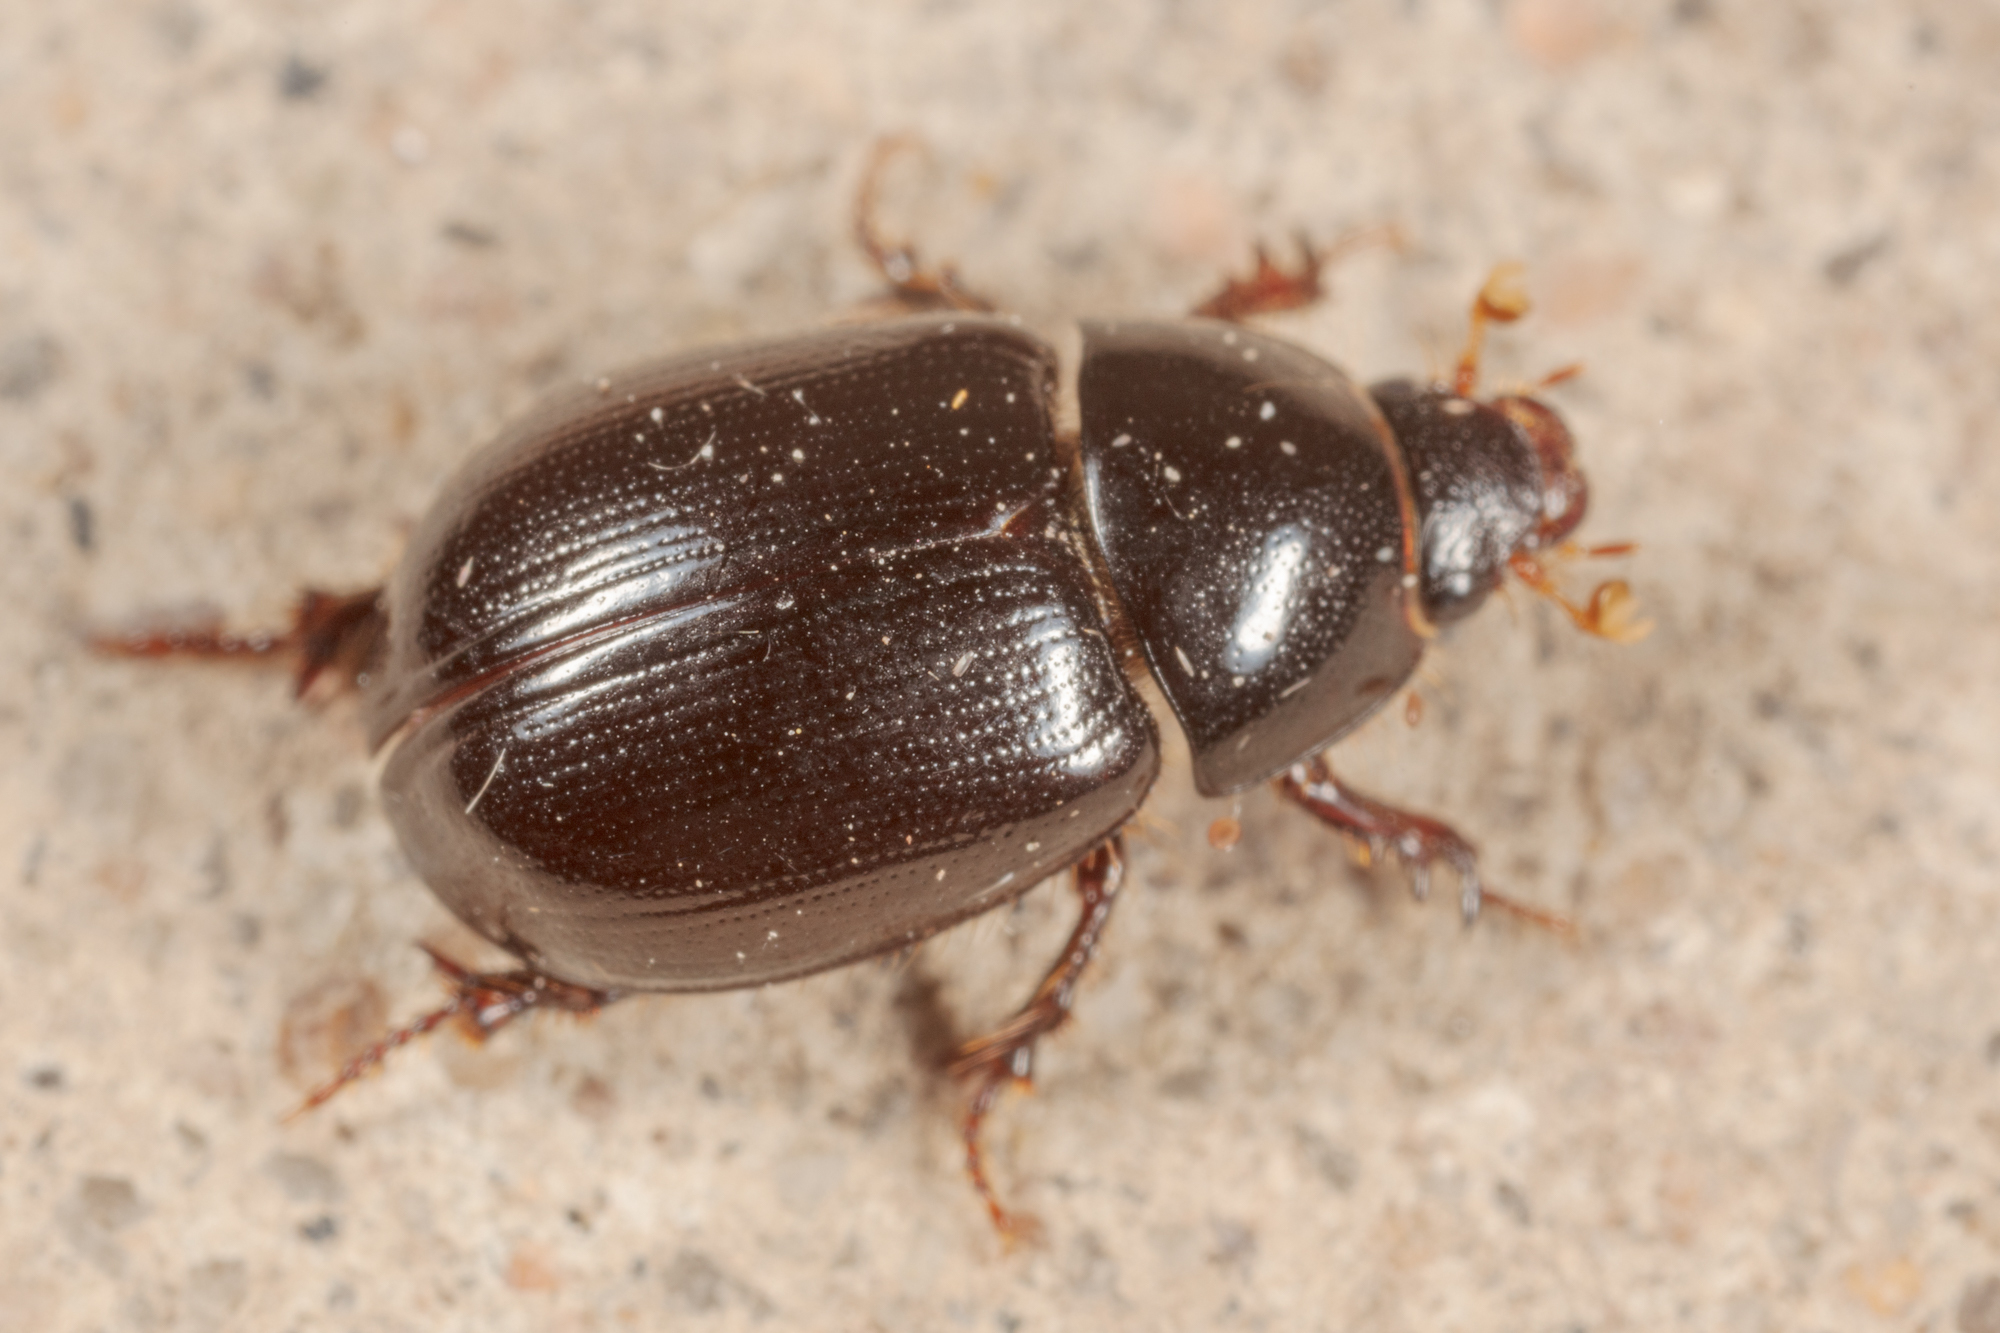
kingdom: Animalia
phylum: Arthropoda
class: Insecta
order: Coleoptera
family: Hybosoridae
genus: Hybosorus
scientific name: Hybosorus illigeri
